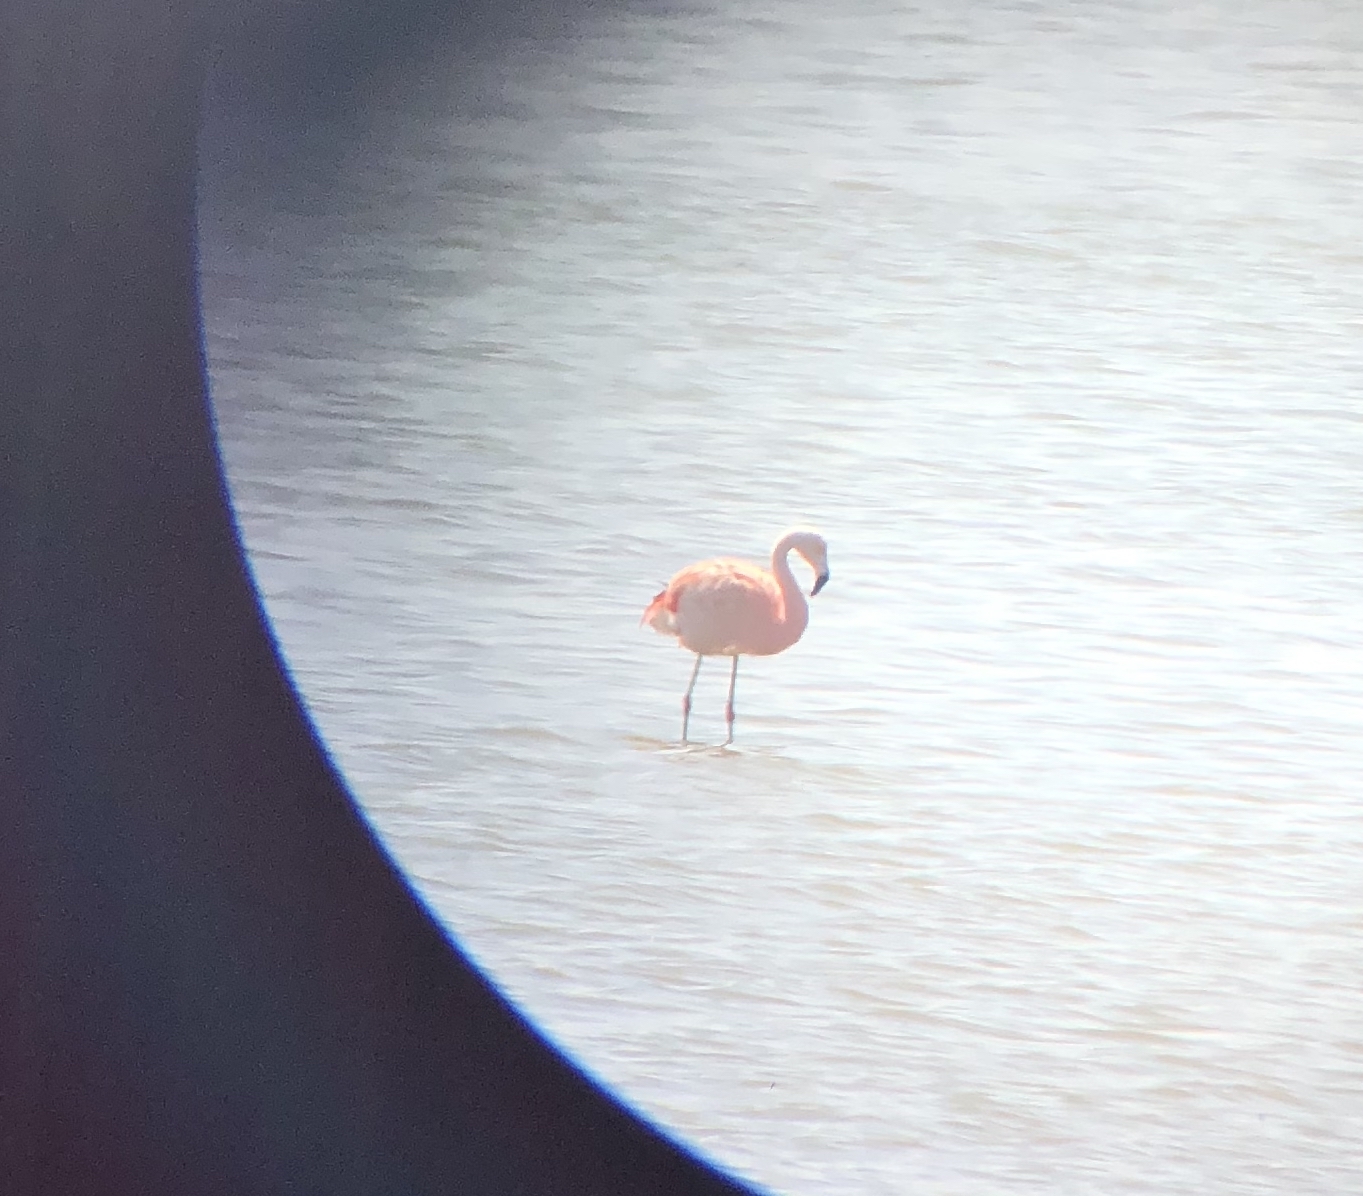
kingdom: Animalia
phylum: Chordata
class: Aves
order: Phoenicopteriformes
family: Phoenicopteridae
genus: Phoenicopterus
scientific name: Phoenicopterus chilensis
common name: Chilean flamingo
